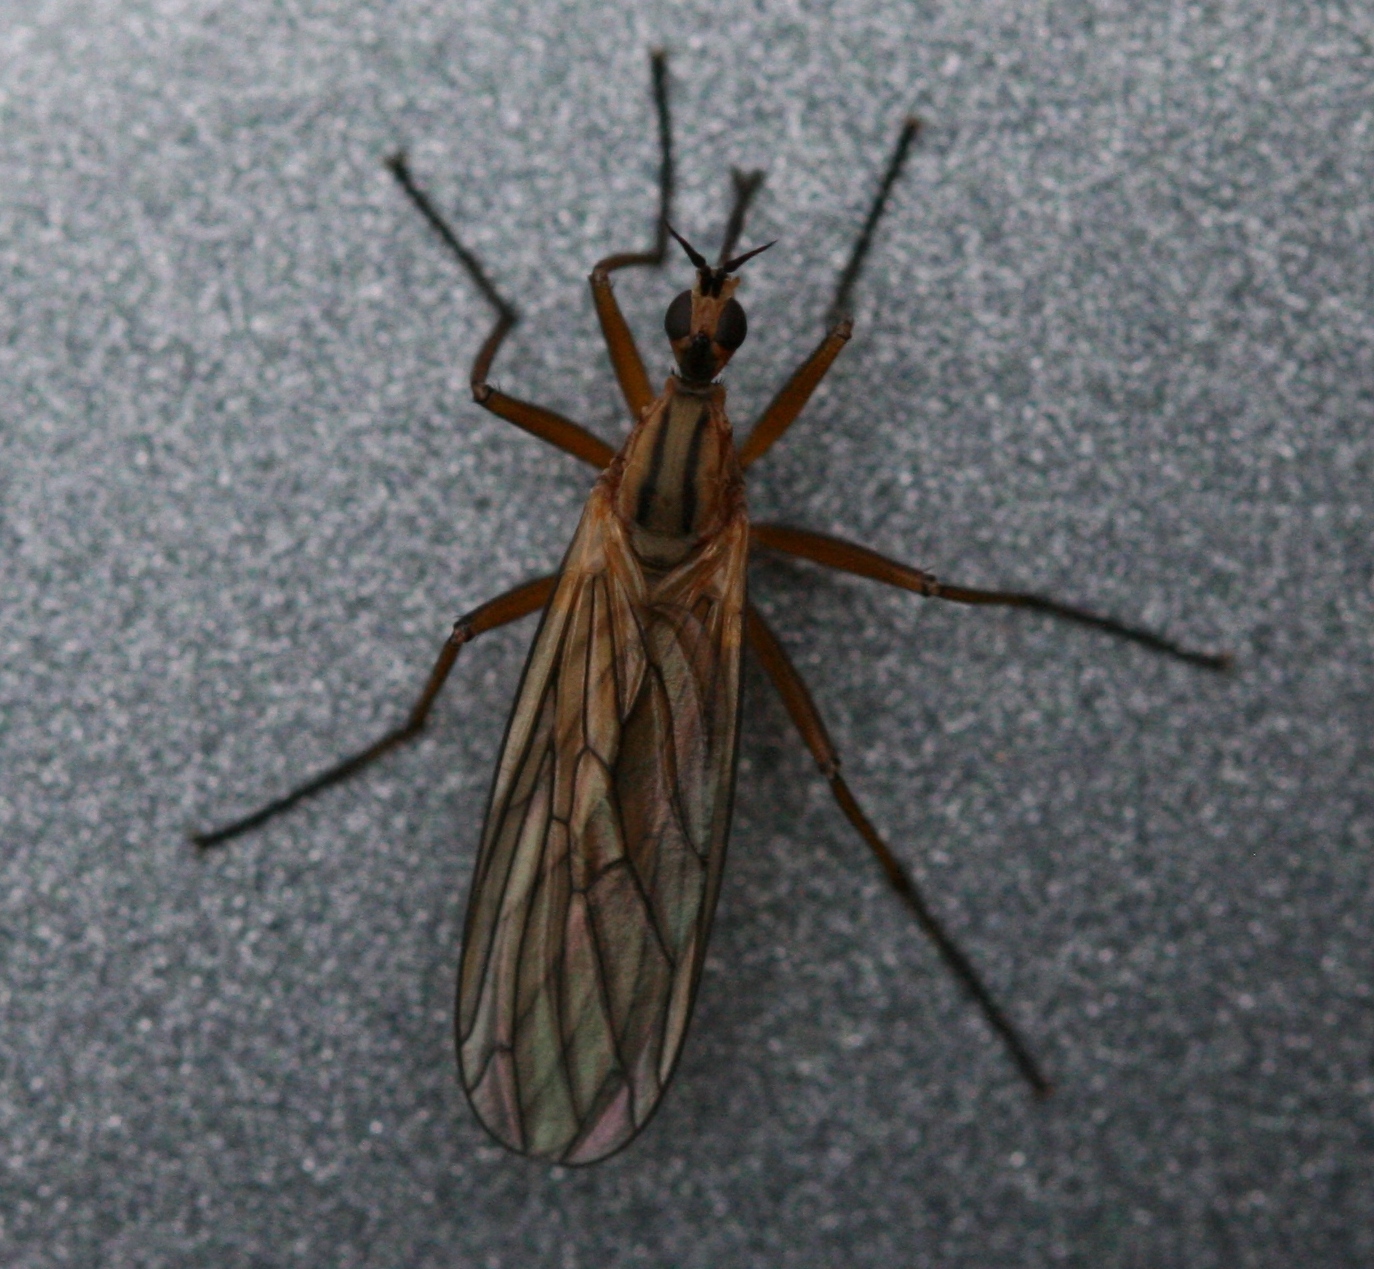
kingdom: Animalia
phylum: Arthropoda
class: Insecta
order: Diptera
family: Empididae
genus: Empis
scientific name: Empis diagramma
